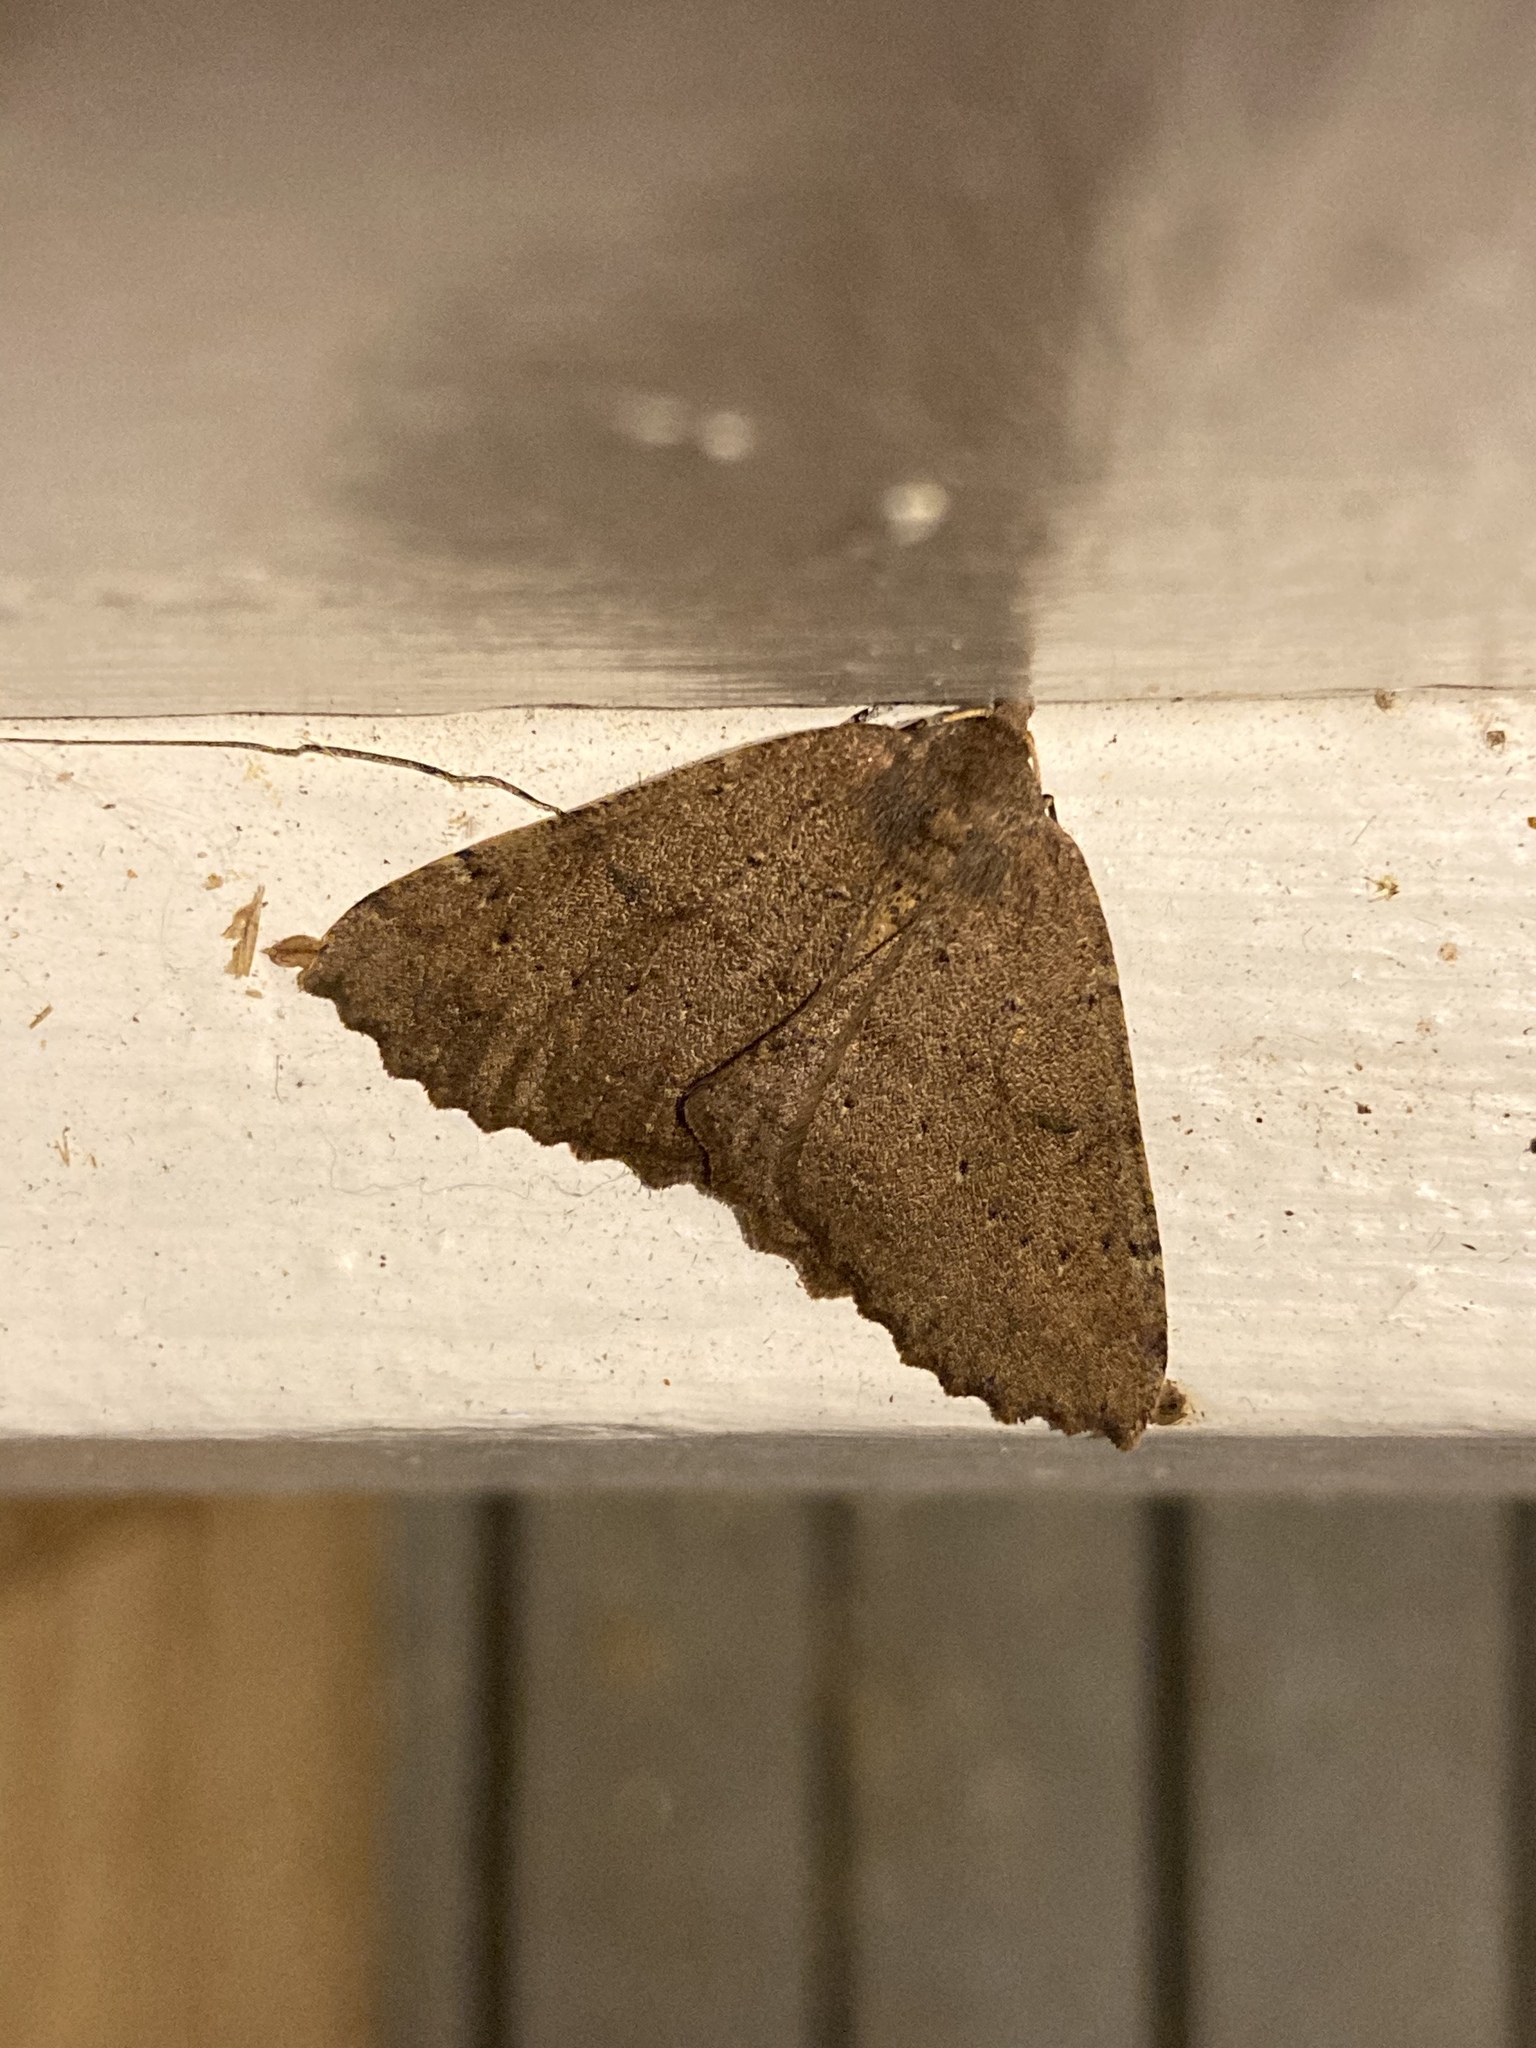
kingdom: Animalia
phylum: Arthropoda
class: Insecta
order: Lepidoptera
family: Geometridae
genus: Cleora
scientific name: Cleora scriptaria
